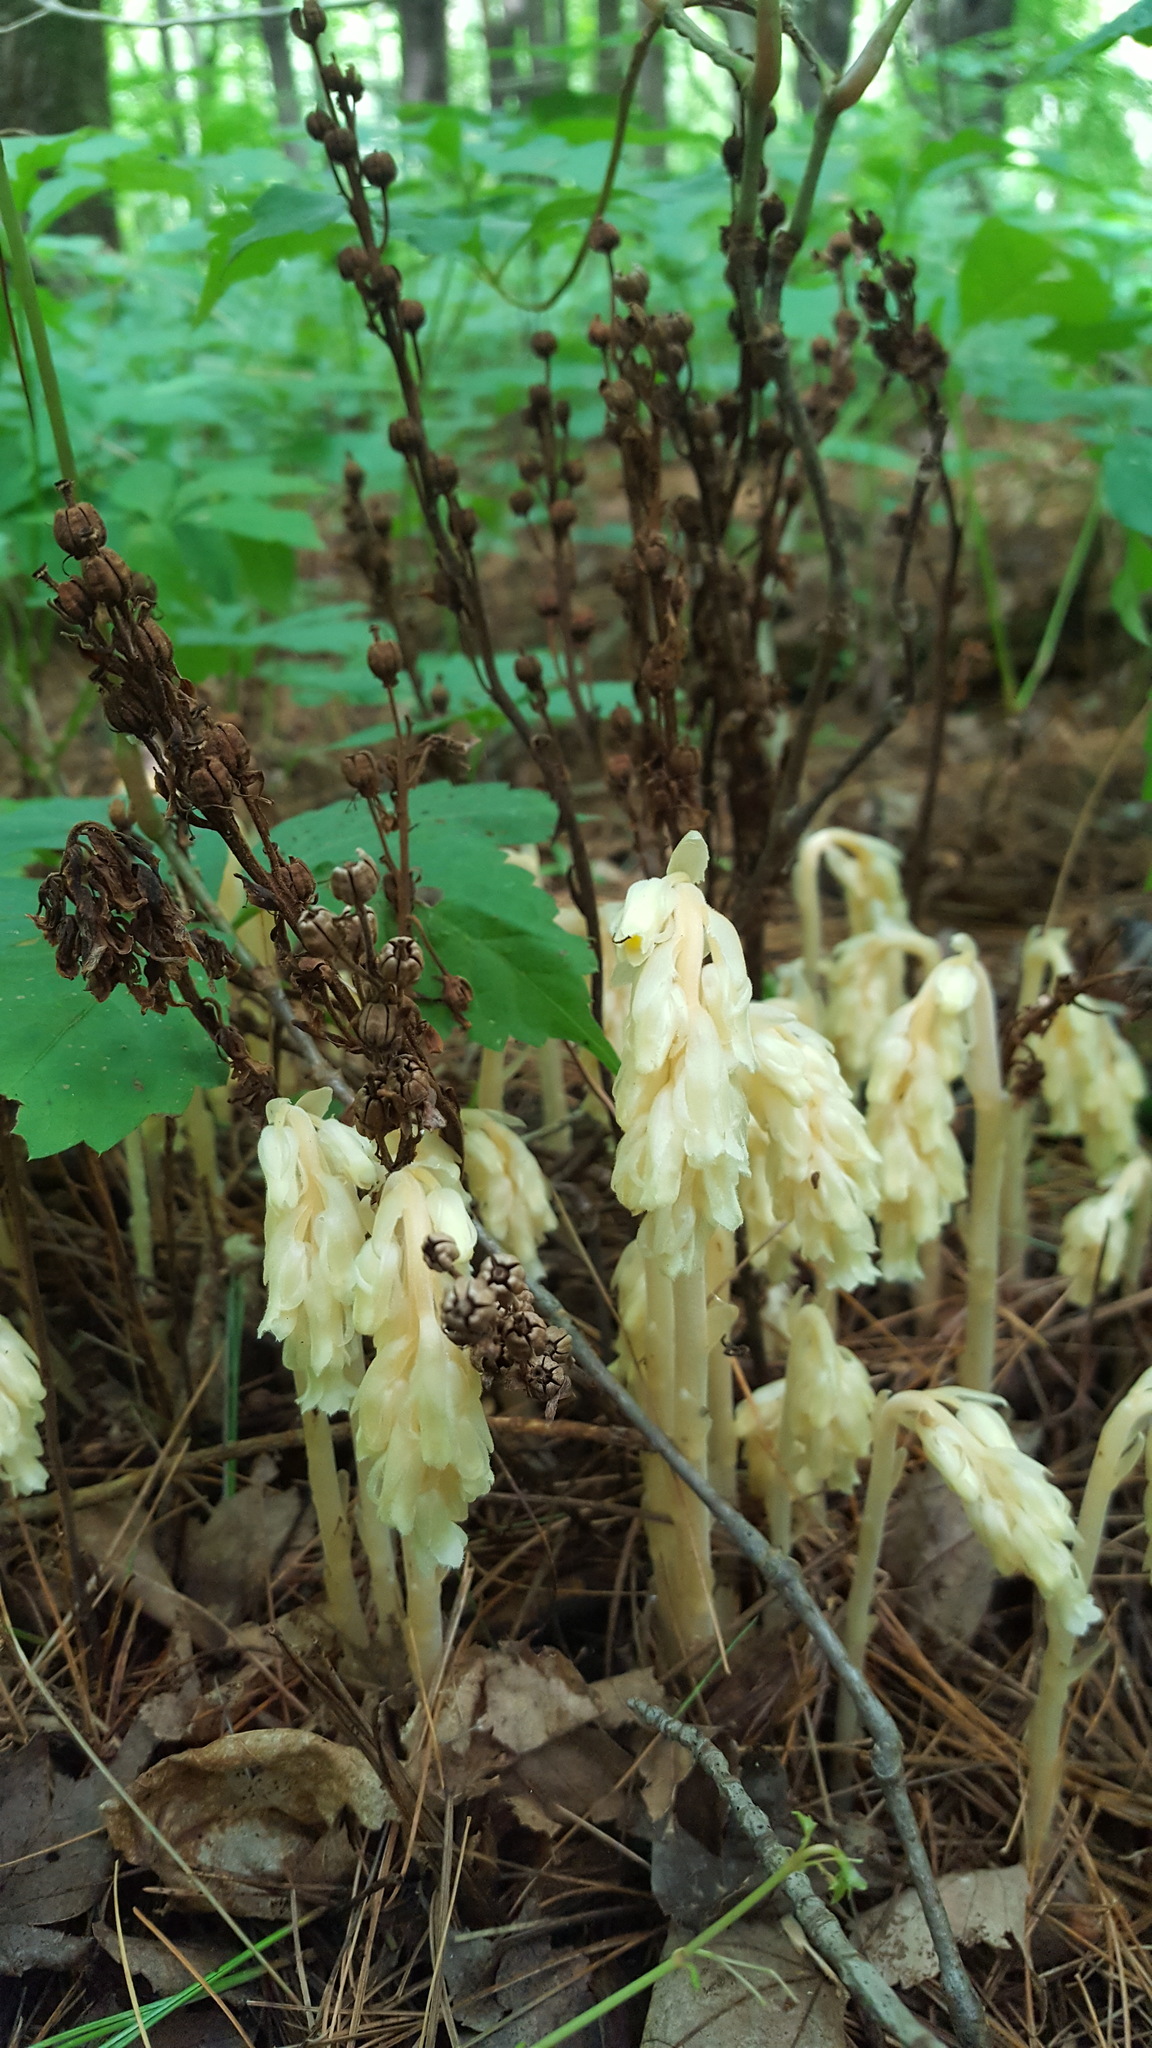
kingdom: Plantae
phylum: Tracheophyta
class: Magnoliopsida
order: Ericales
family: Ericaceae
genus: Hypopitys
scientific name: Hypopitys monotropa
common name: Yellow bird's-nest
